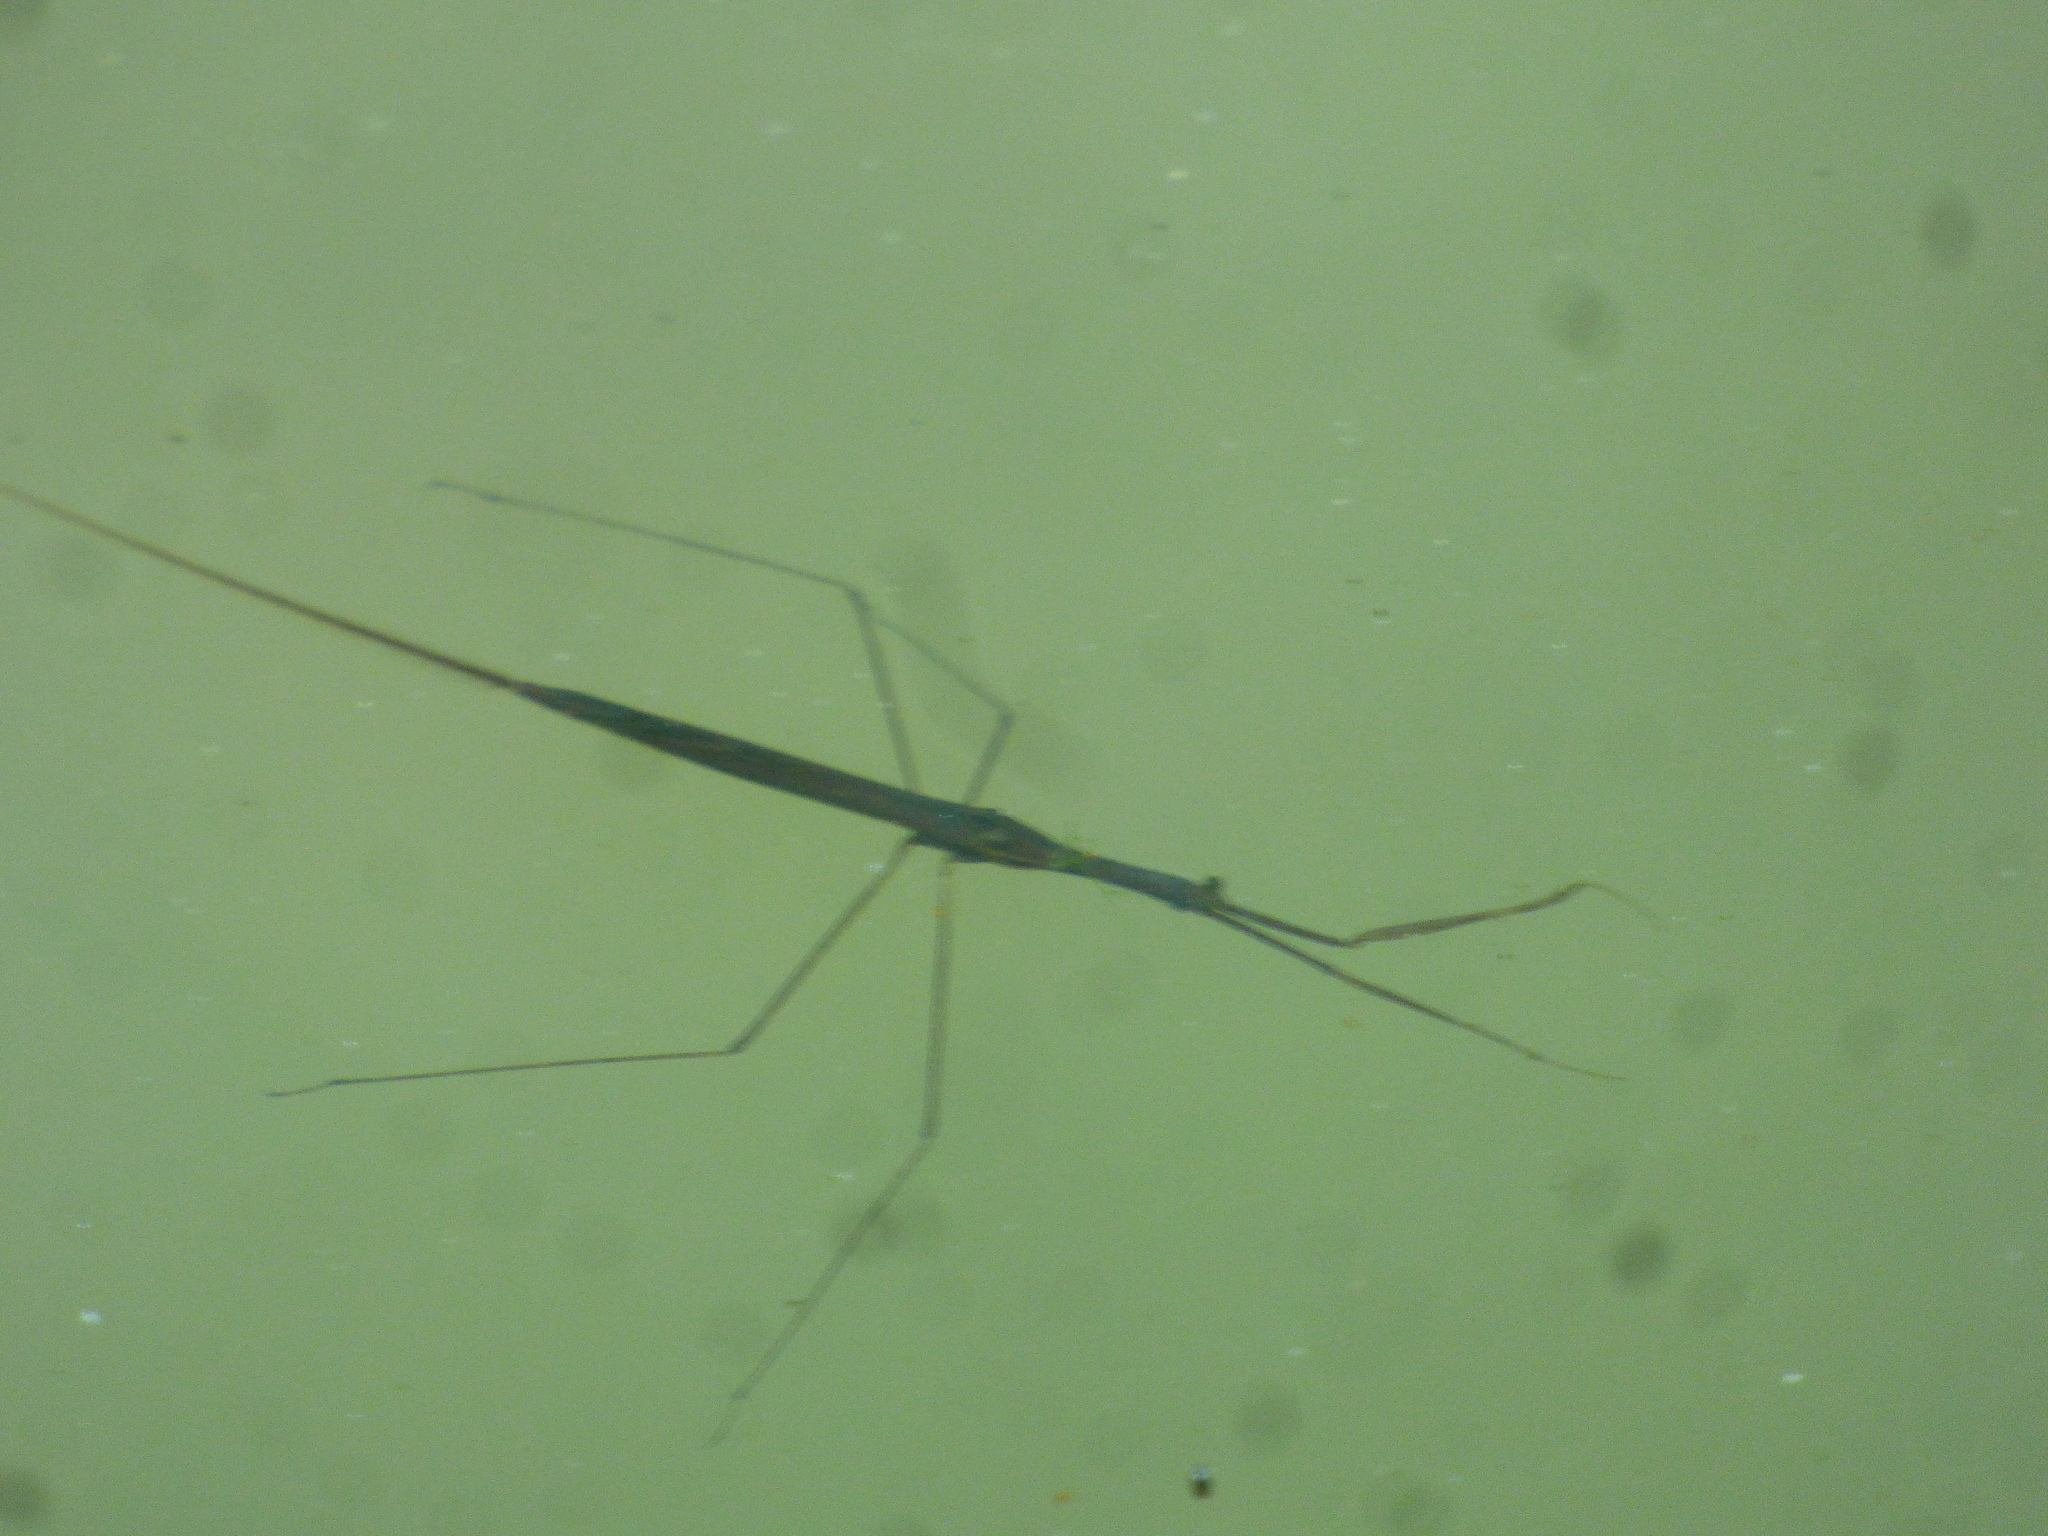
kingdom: Animalia
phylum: Arthropoda
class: Insecta
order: Hemiptera
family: Nepidae
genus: Ranatra
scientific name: Ranatra
